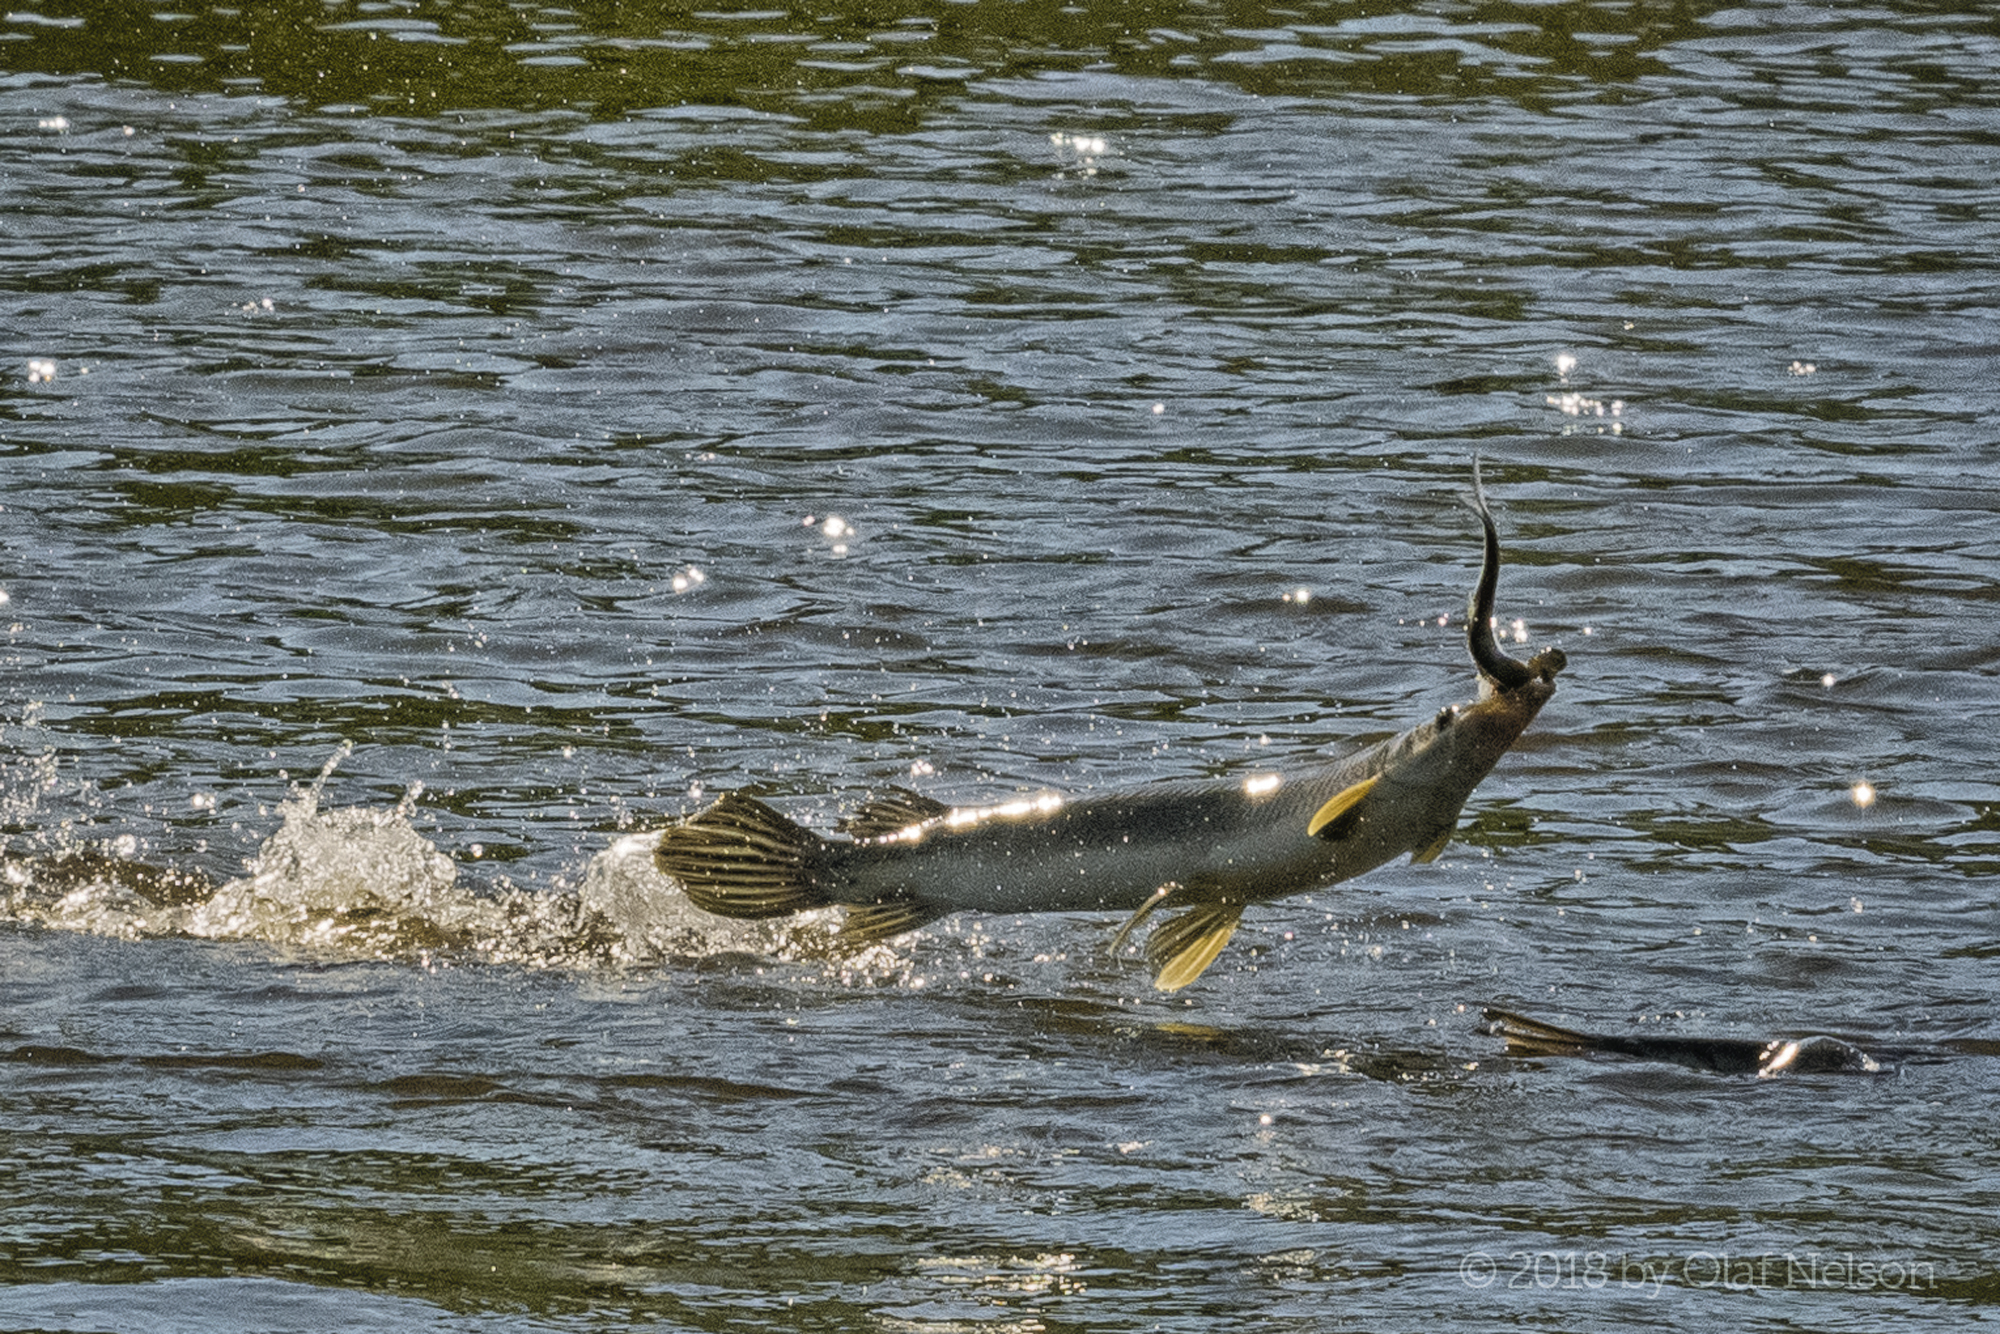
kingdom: Animalia
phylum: Chordata
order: Lepisosteiformes
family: Lepisosteidae
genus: Lepisosteus
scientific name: Lepisosteus platostomus
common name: Shortnose gar
